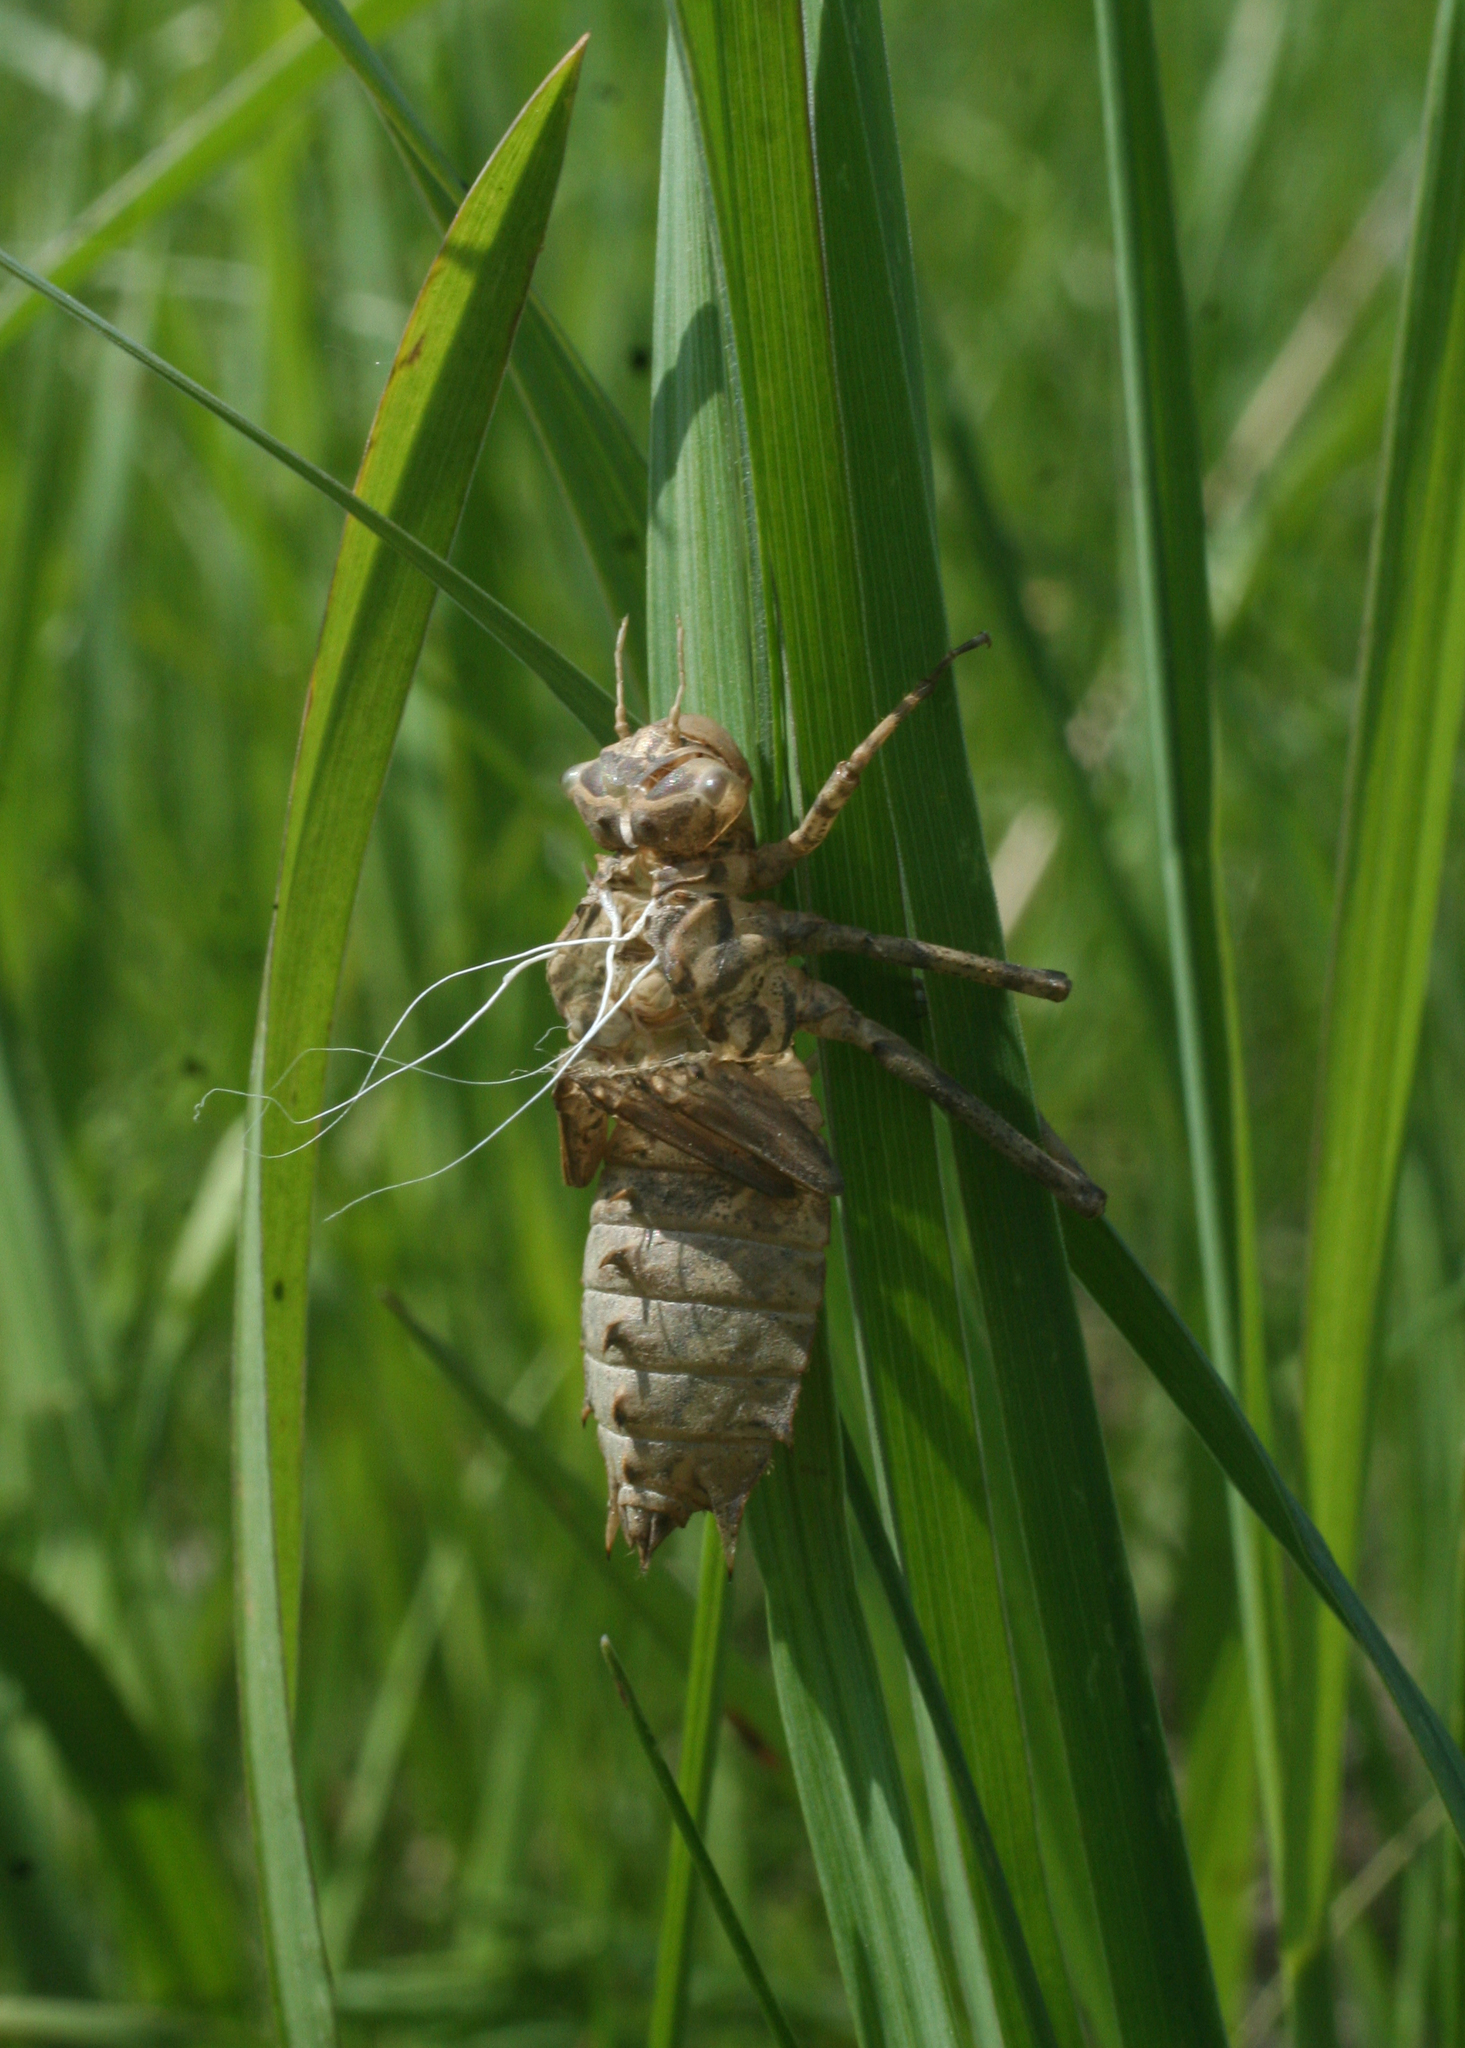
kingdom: Animalia
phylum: Arthropoda
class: Insecta
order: Odonata
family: Corduliidae
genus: Epitheca
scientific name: Epitheca bimaculata
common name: Eurasian baskettail
